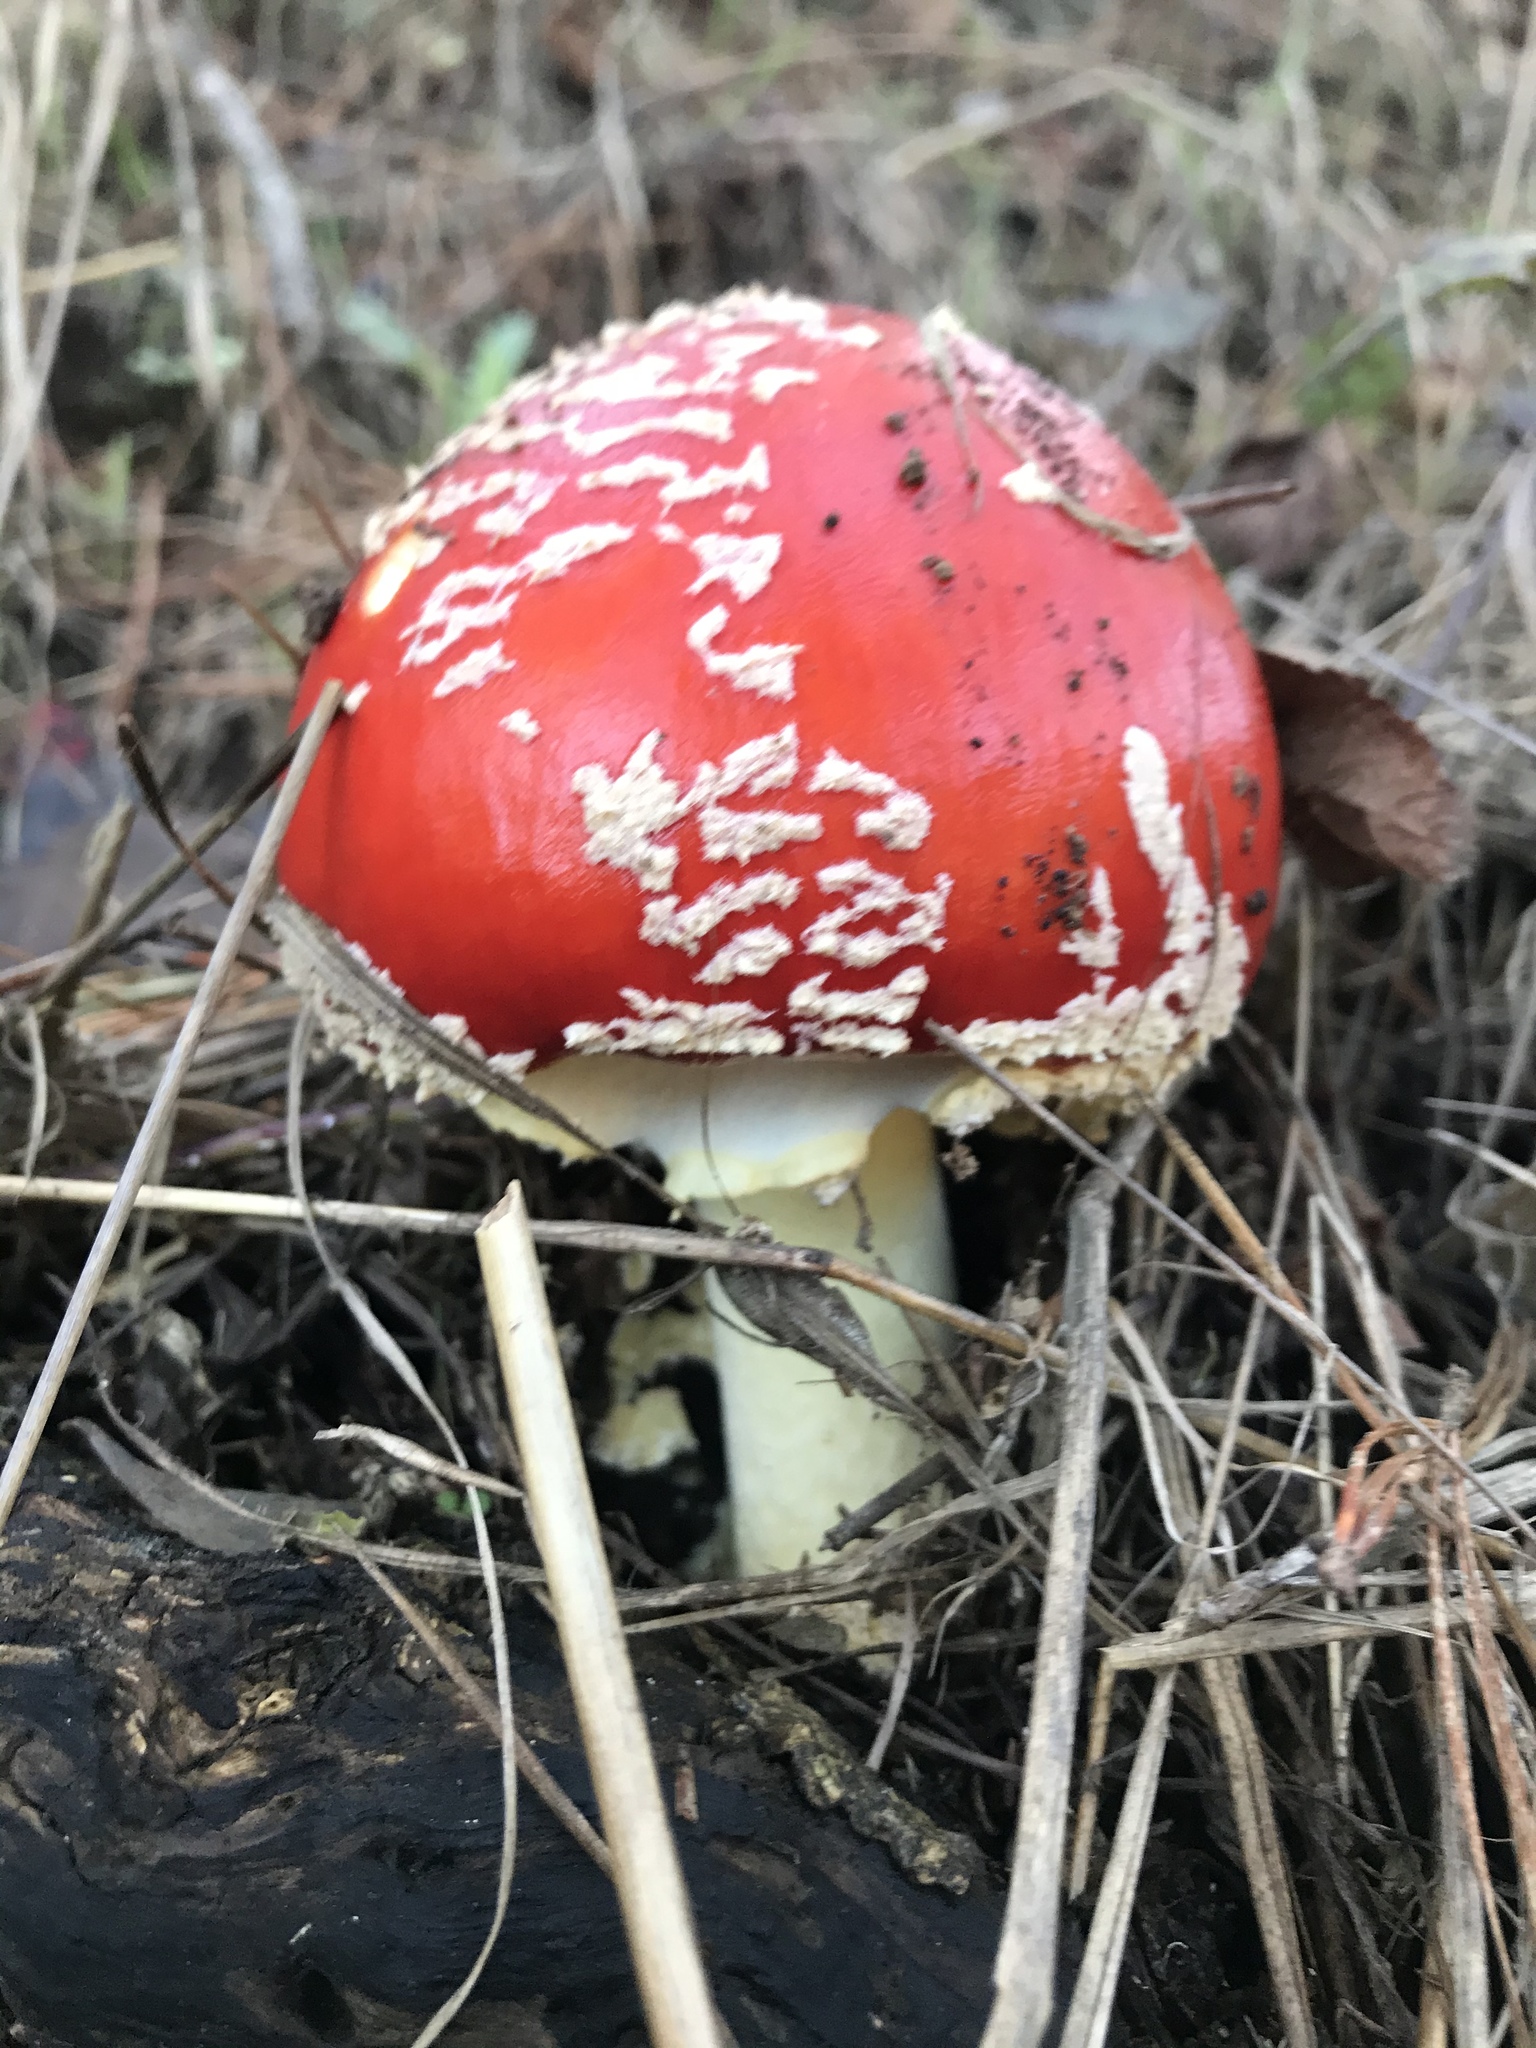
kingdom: Fungi
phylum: Basidiomycota
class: Agaricomycetes
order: Agaricales
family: Amanitaceae
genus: Amanita
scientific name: Amanita muscaria
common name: Fly agaric
